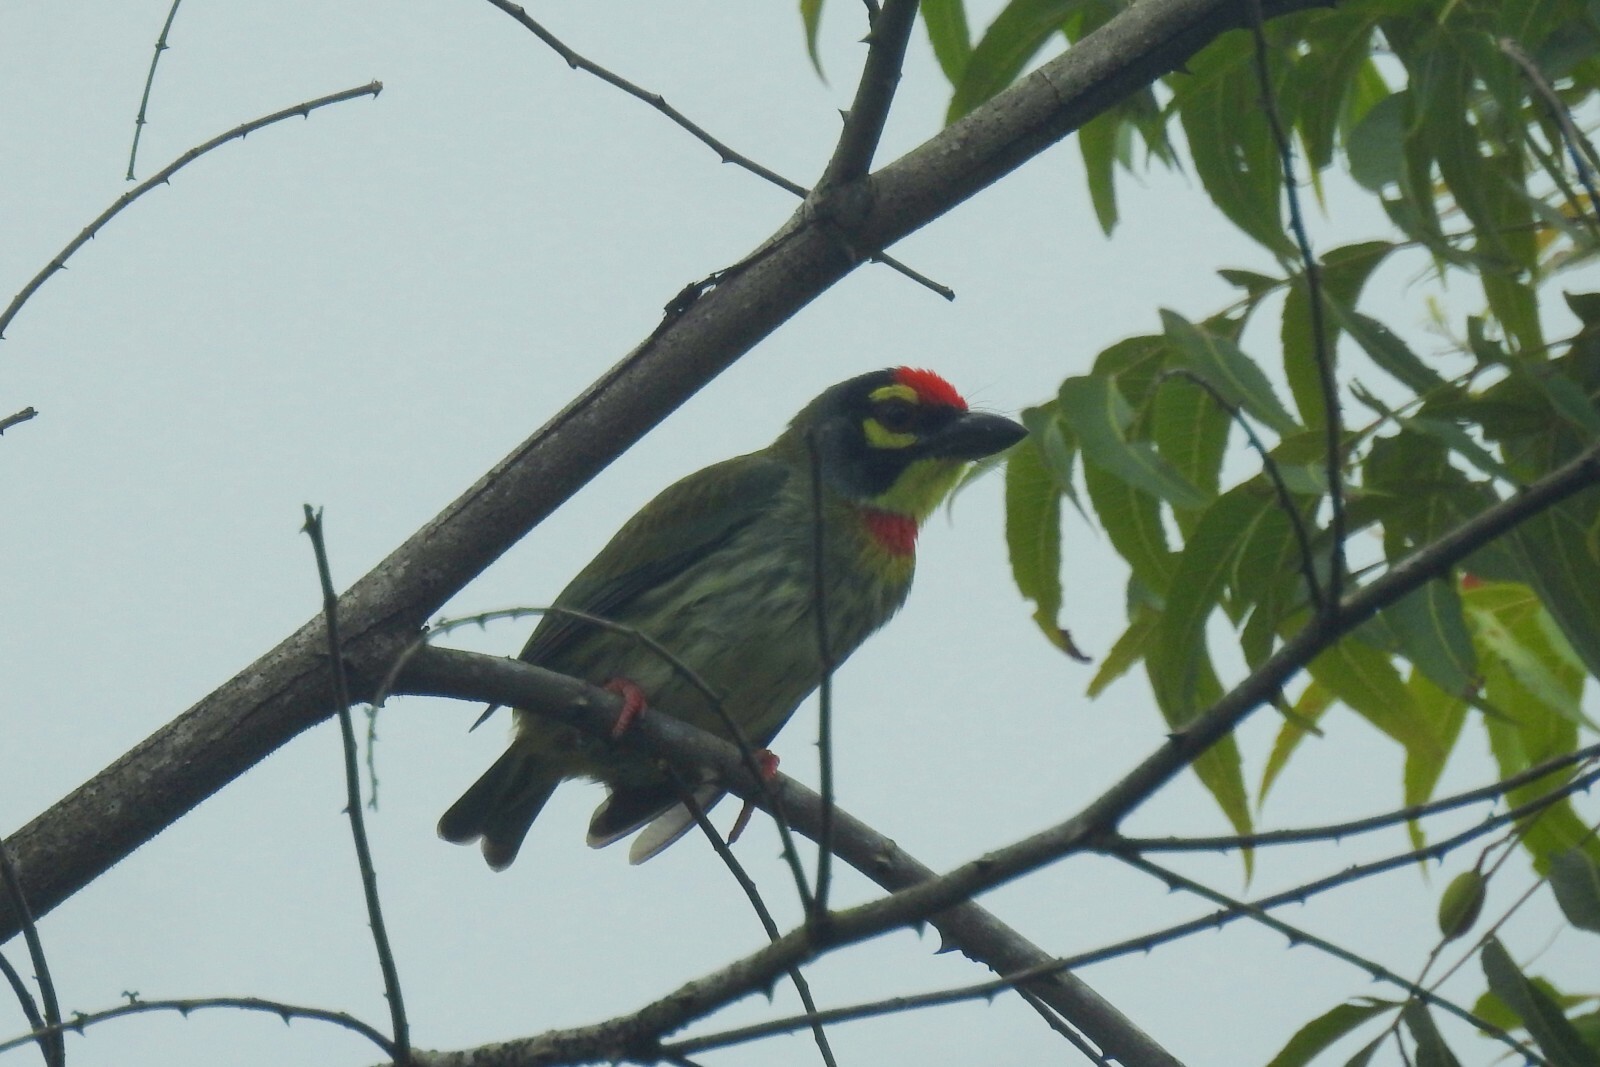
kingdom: Animalia
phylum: Chordata
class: Aves
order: Piciformes
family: Megalaimidae
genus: Psilopogon
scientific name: Psilopogon haemacephalus
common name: Coppersmith barbet
